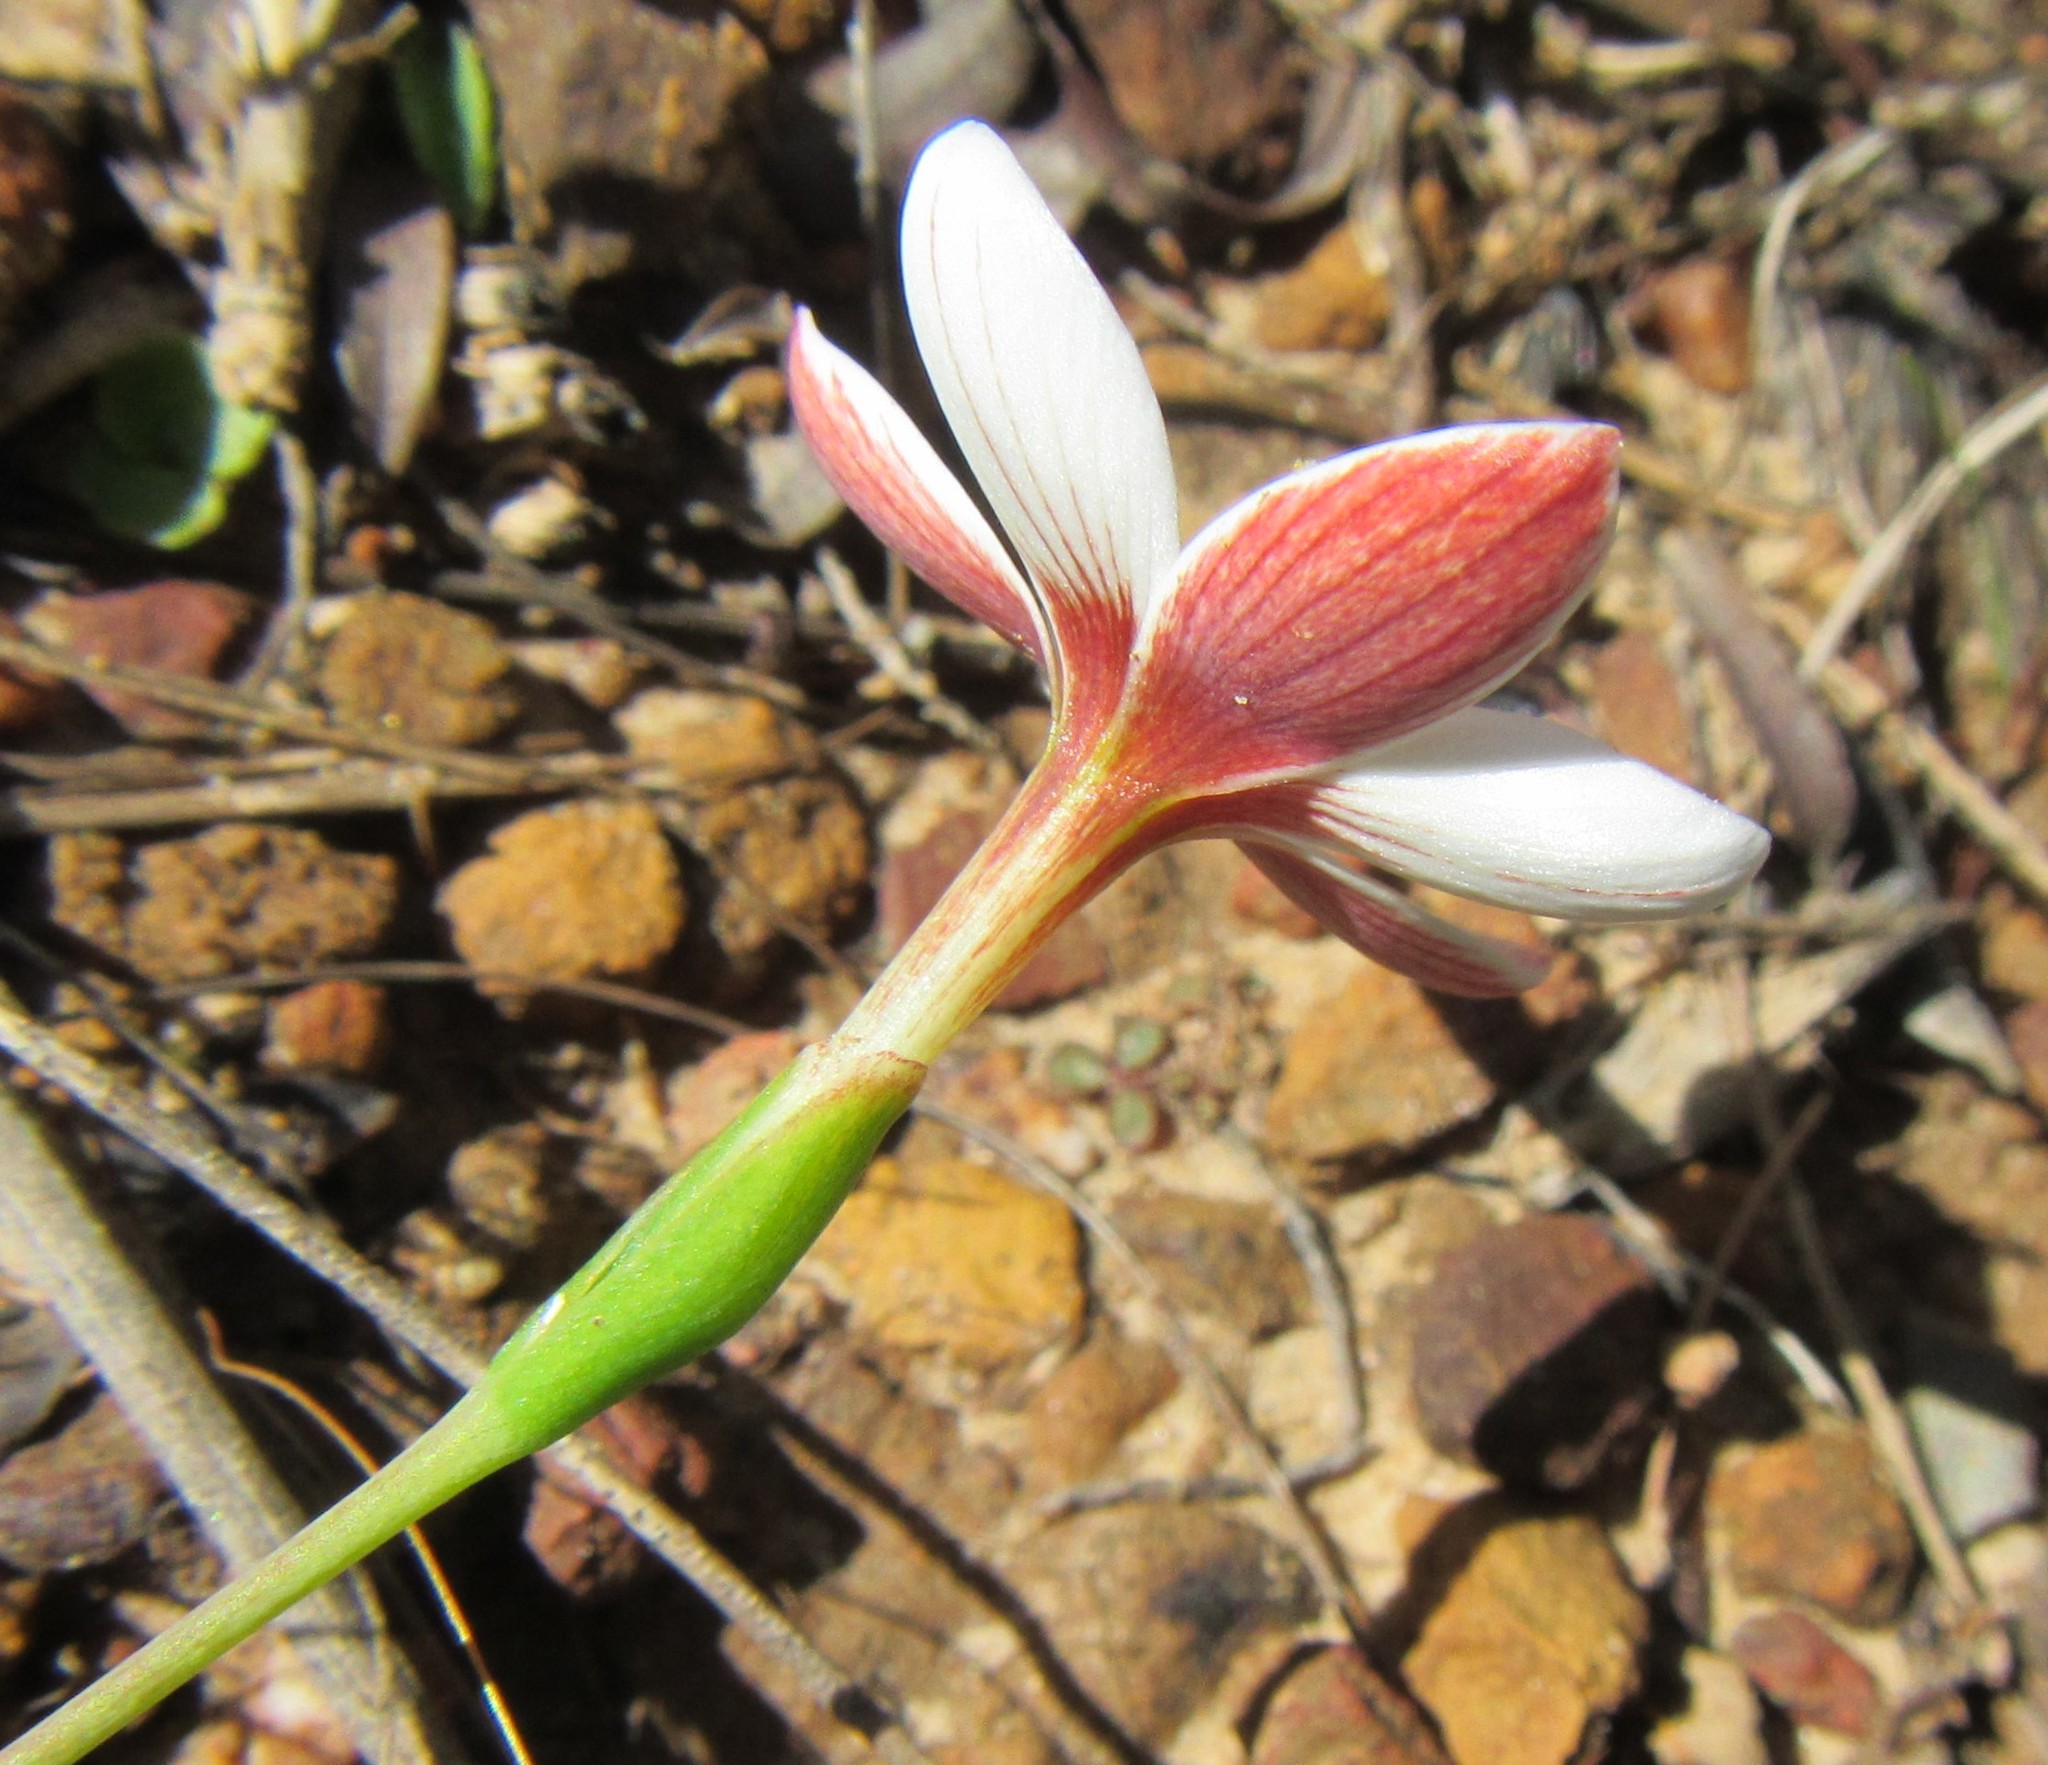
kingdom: Plantae
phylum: Tracheophyta
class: Liliopsida
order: Asparagales
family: Iridaceae
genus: Geissorhiza
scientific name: Geissorhiza ovata
